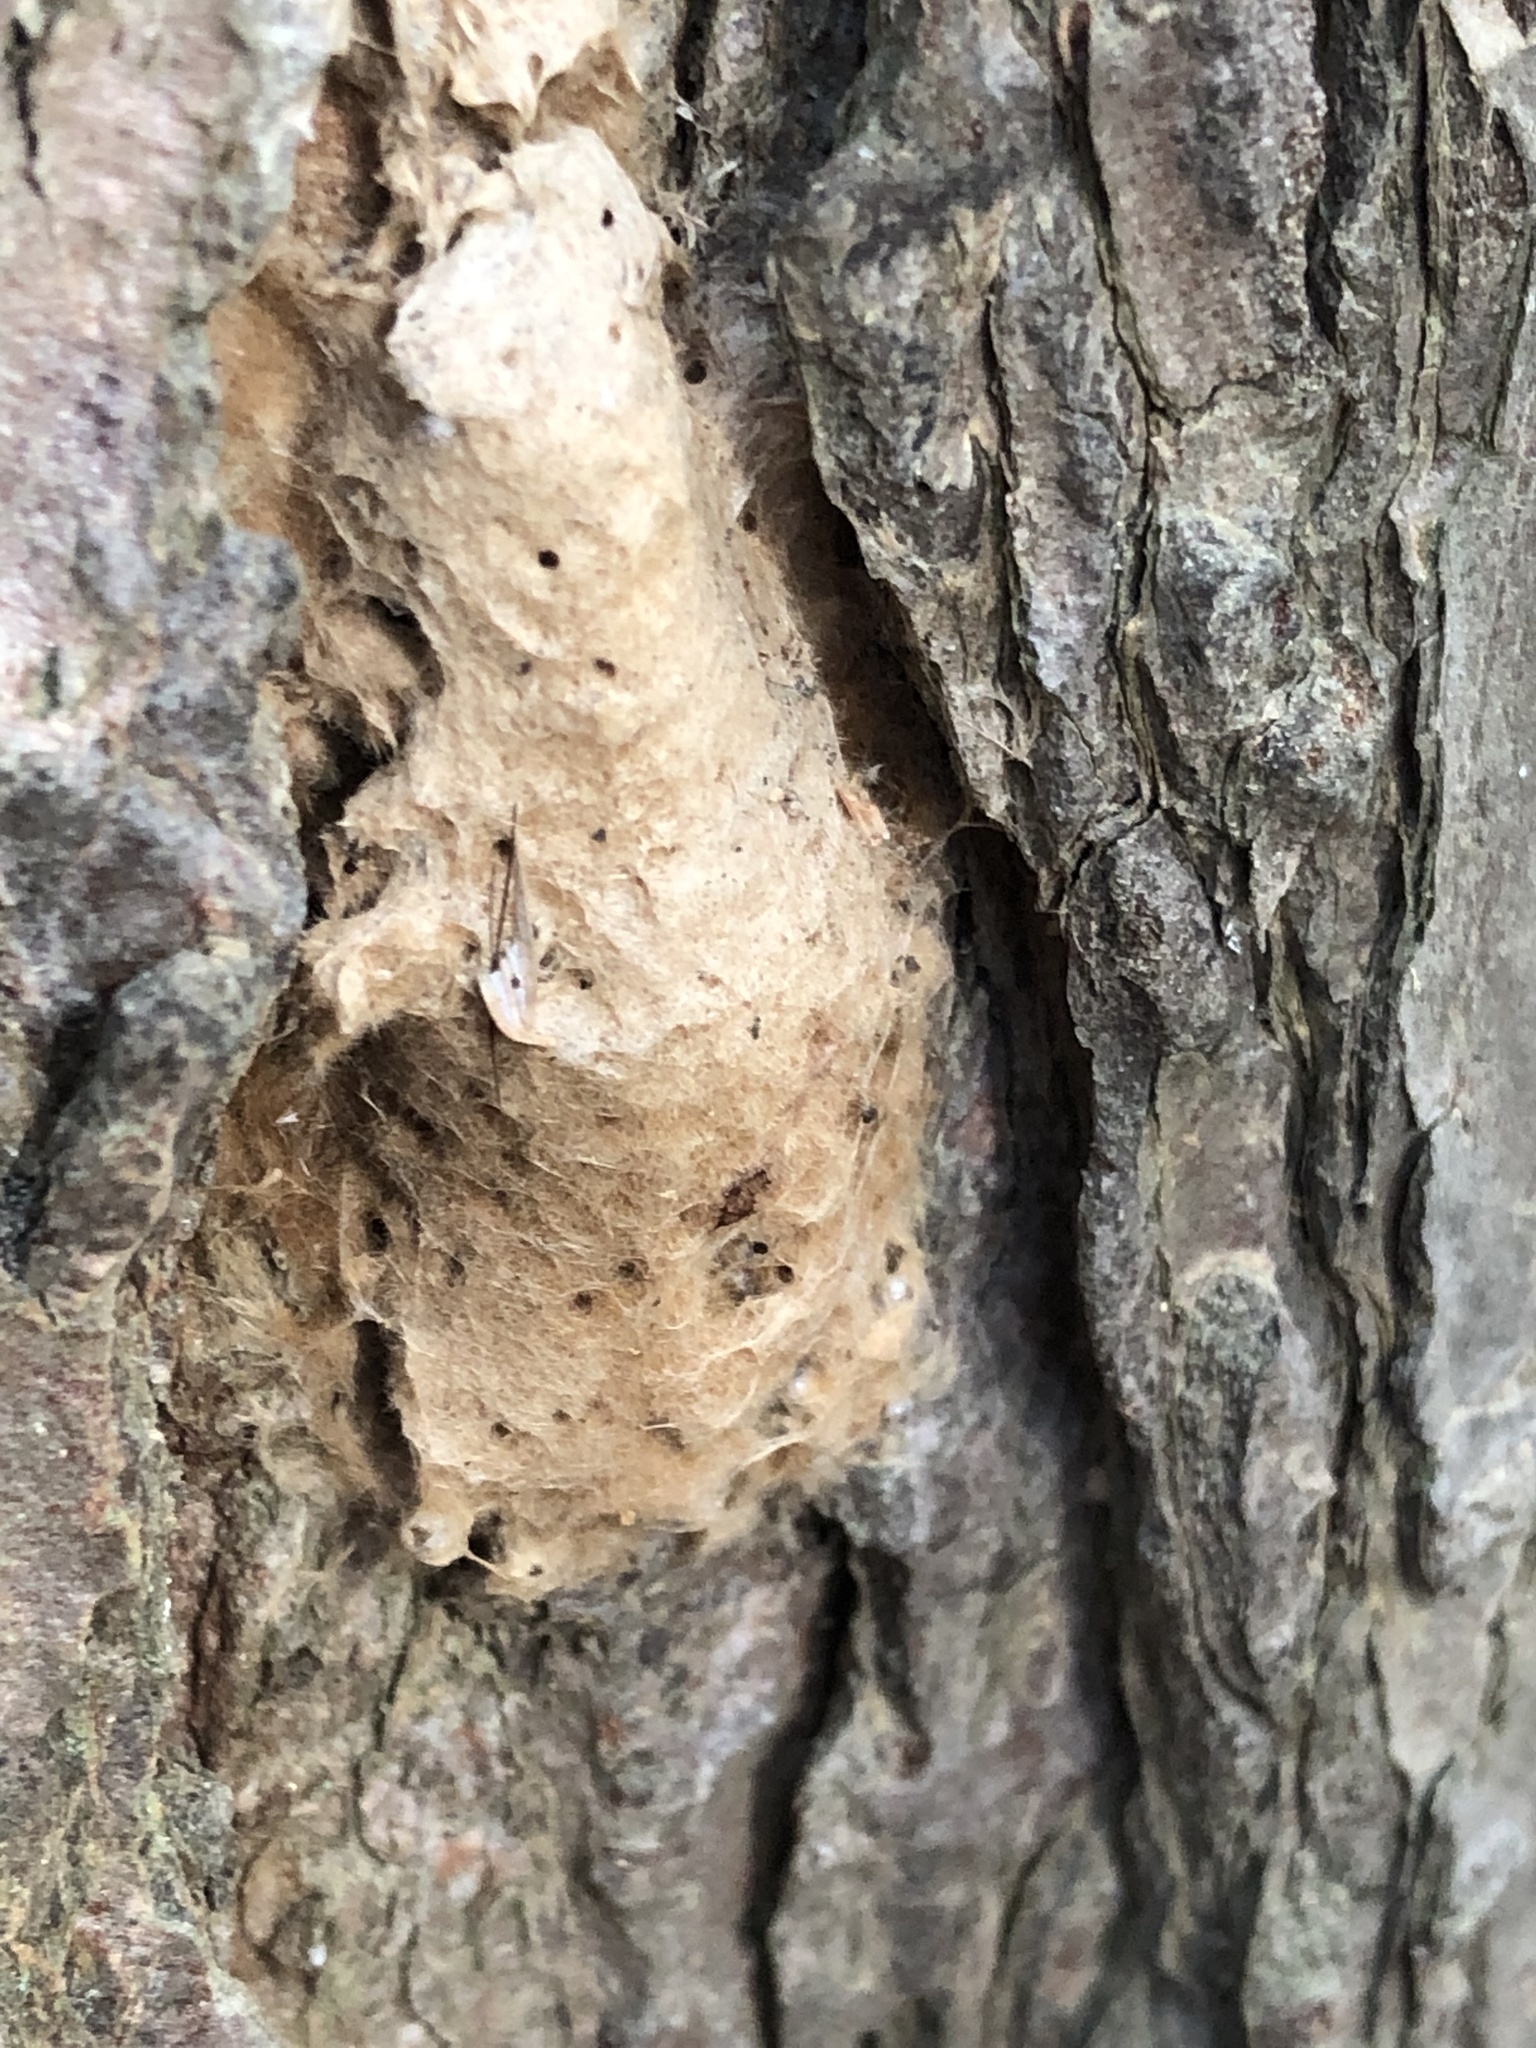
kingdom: Animalia
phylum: Arthropoda
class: Insecta
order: Lepidoptera
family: Erebidae
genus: Lymantria
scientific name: Lymantria dispar
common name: Gypsy moth
